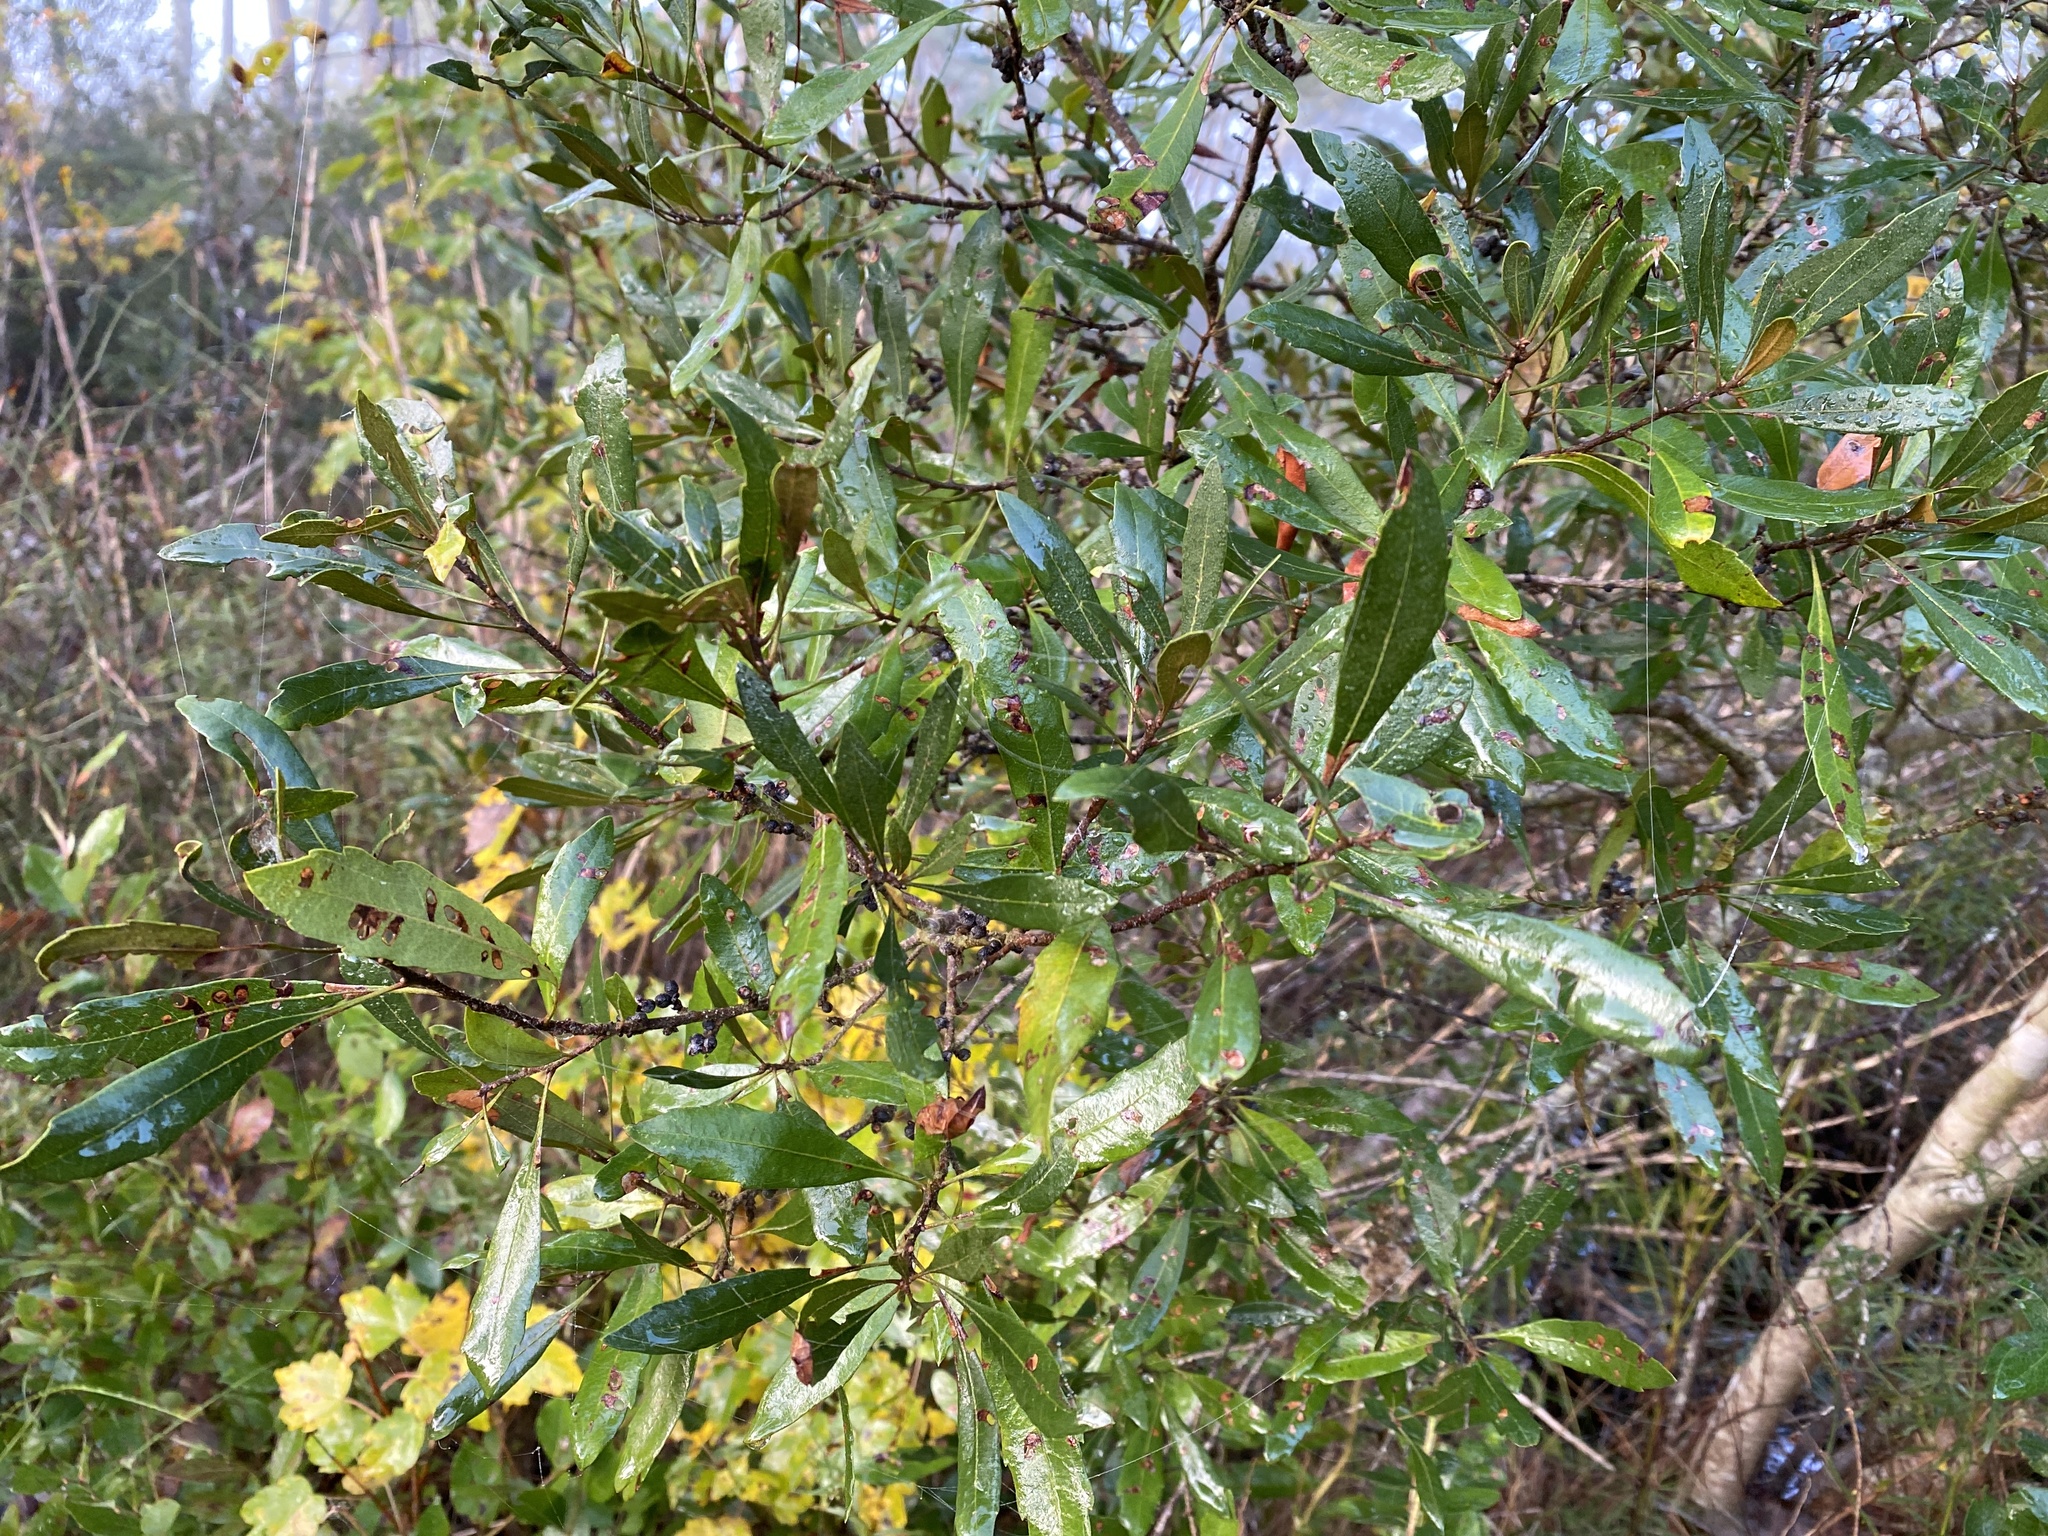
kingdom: Plantae
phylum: Tracheophyta
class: Magnoliopsida
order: Fagales
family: Myricaceae
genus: Morella
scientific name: Morella cerifera
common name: Wax myrtle
